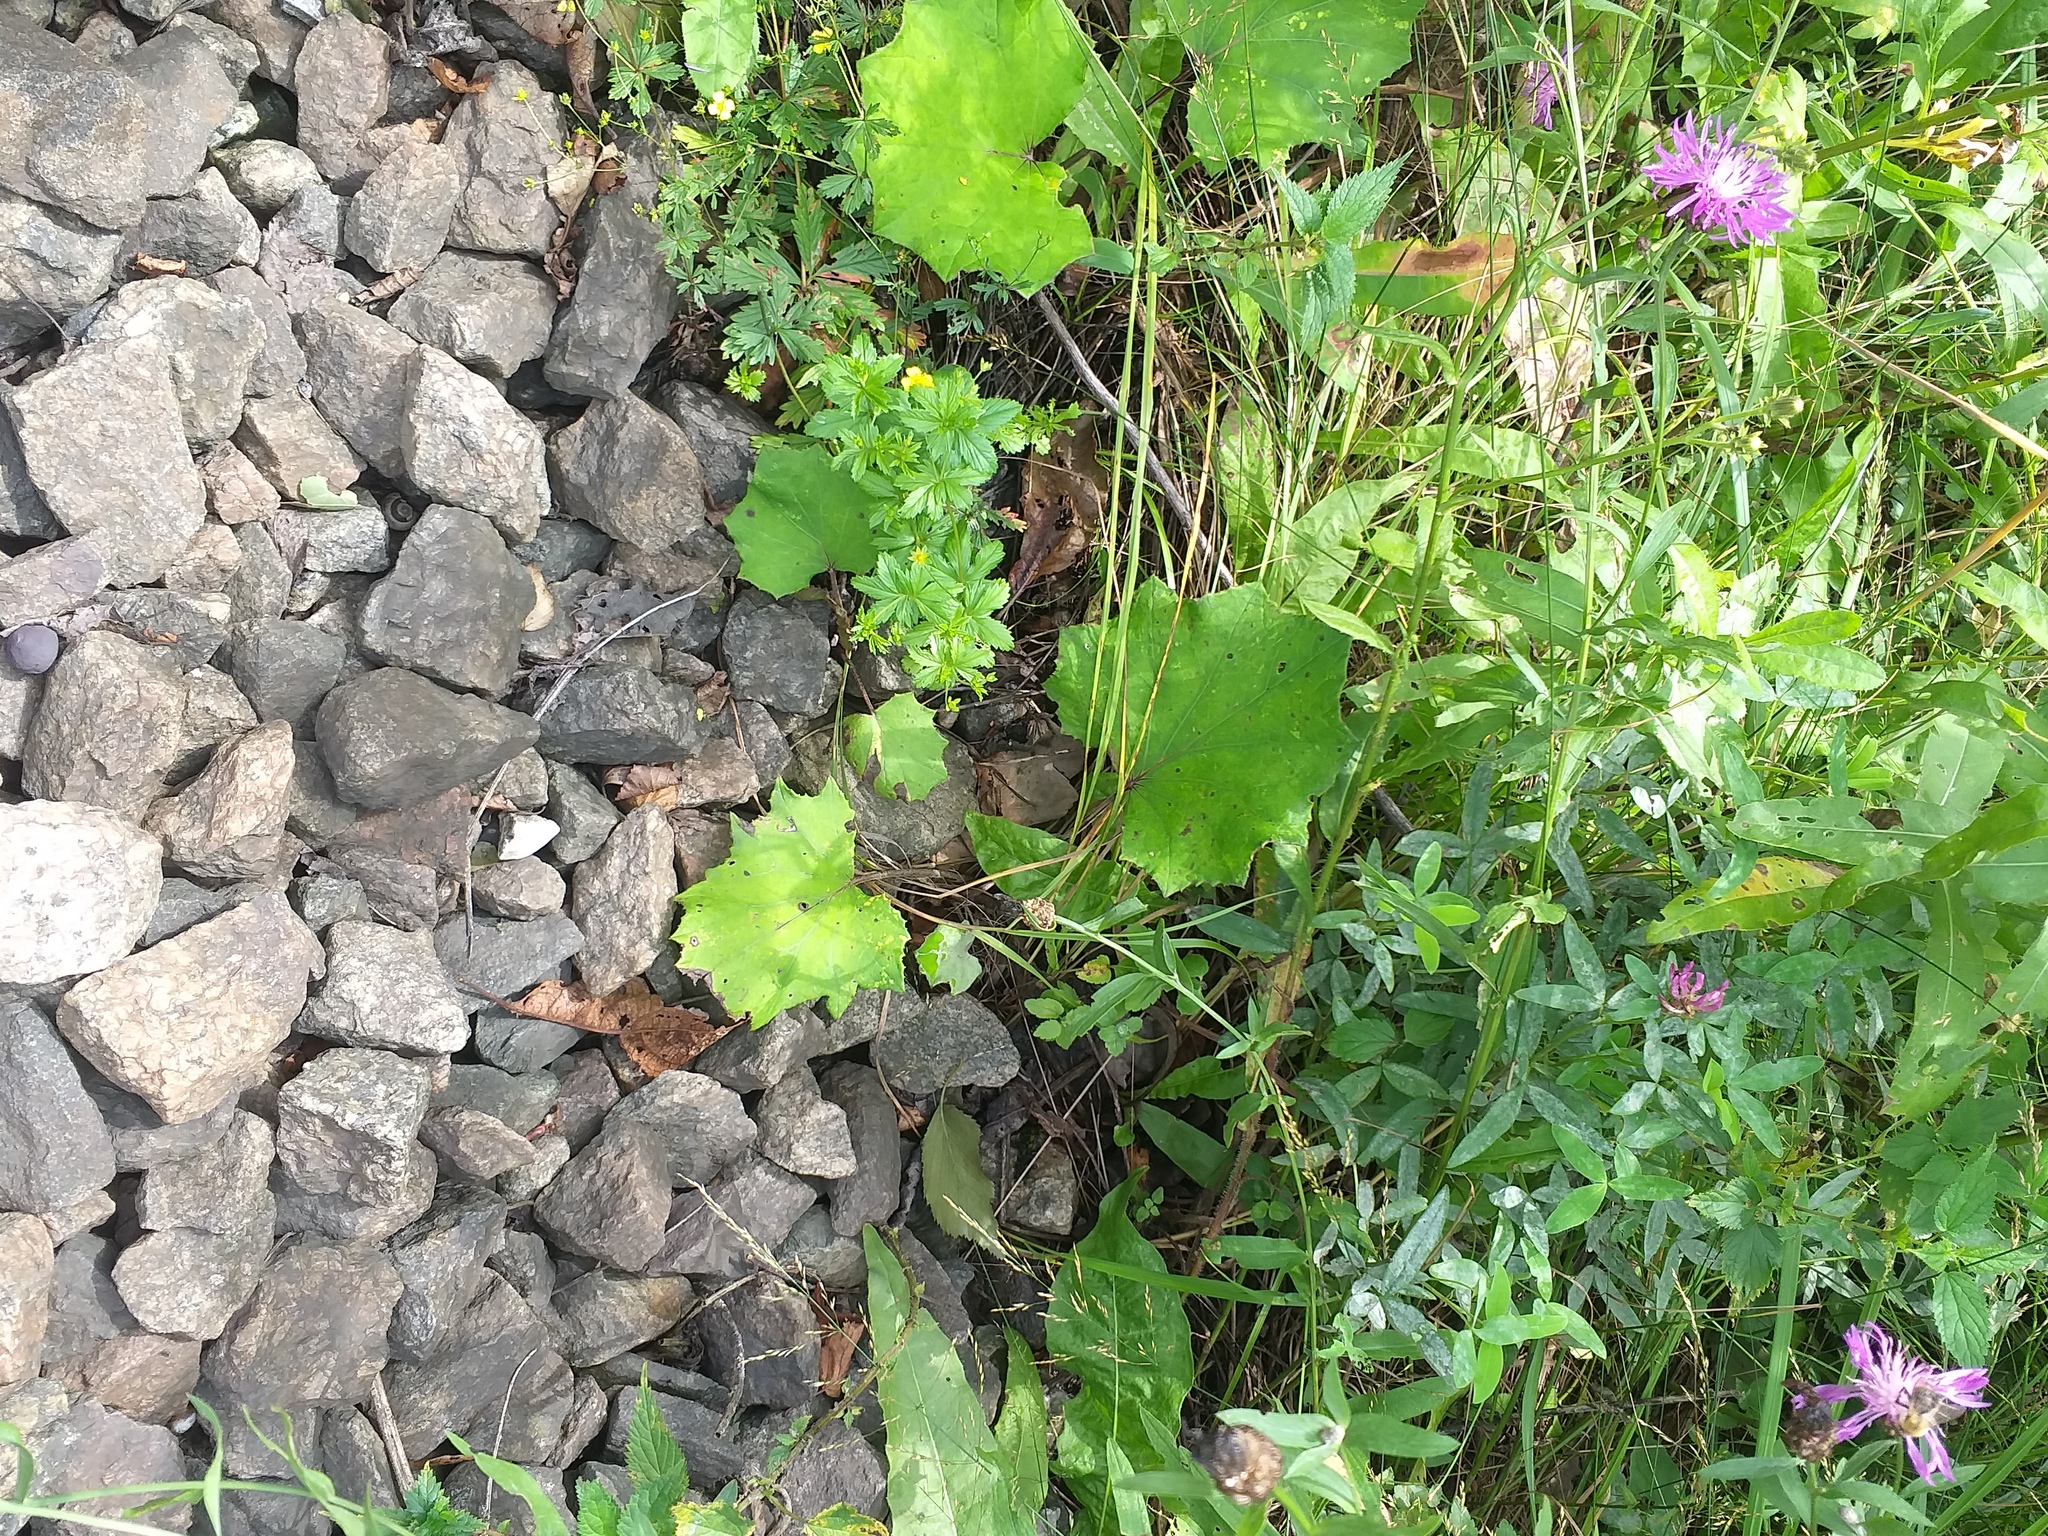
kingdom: Plantae
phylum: Tracheophyta
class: Magnoliopsida
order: Asterales
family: Asteraceae
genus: Tussilago
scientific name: Tussilago farfara
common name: Coltsfoot
